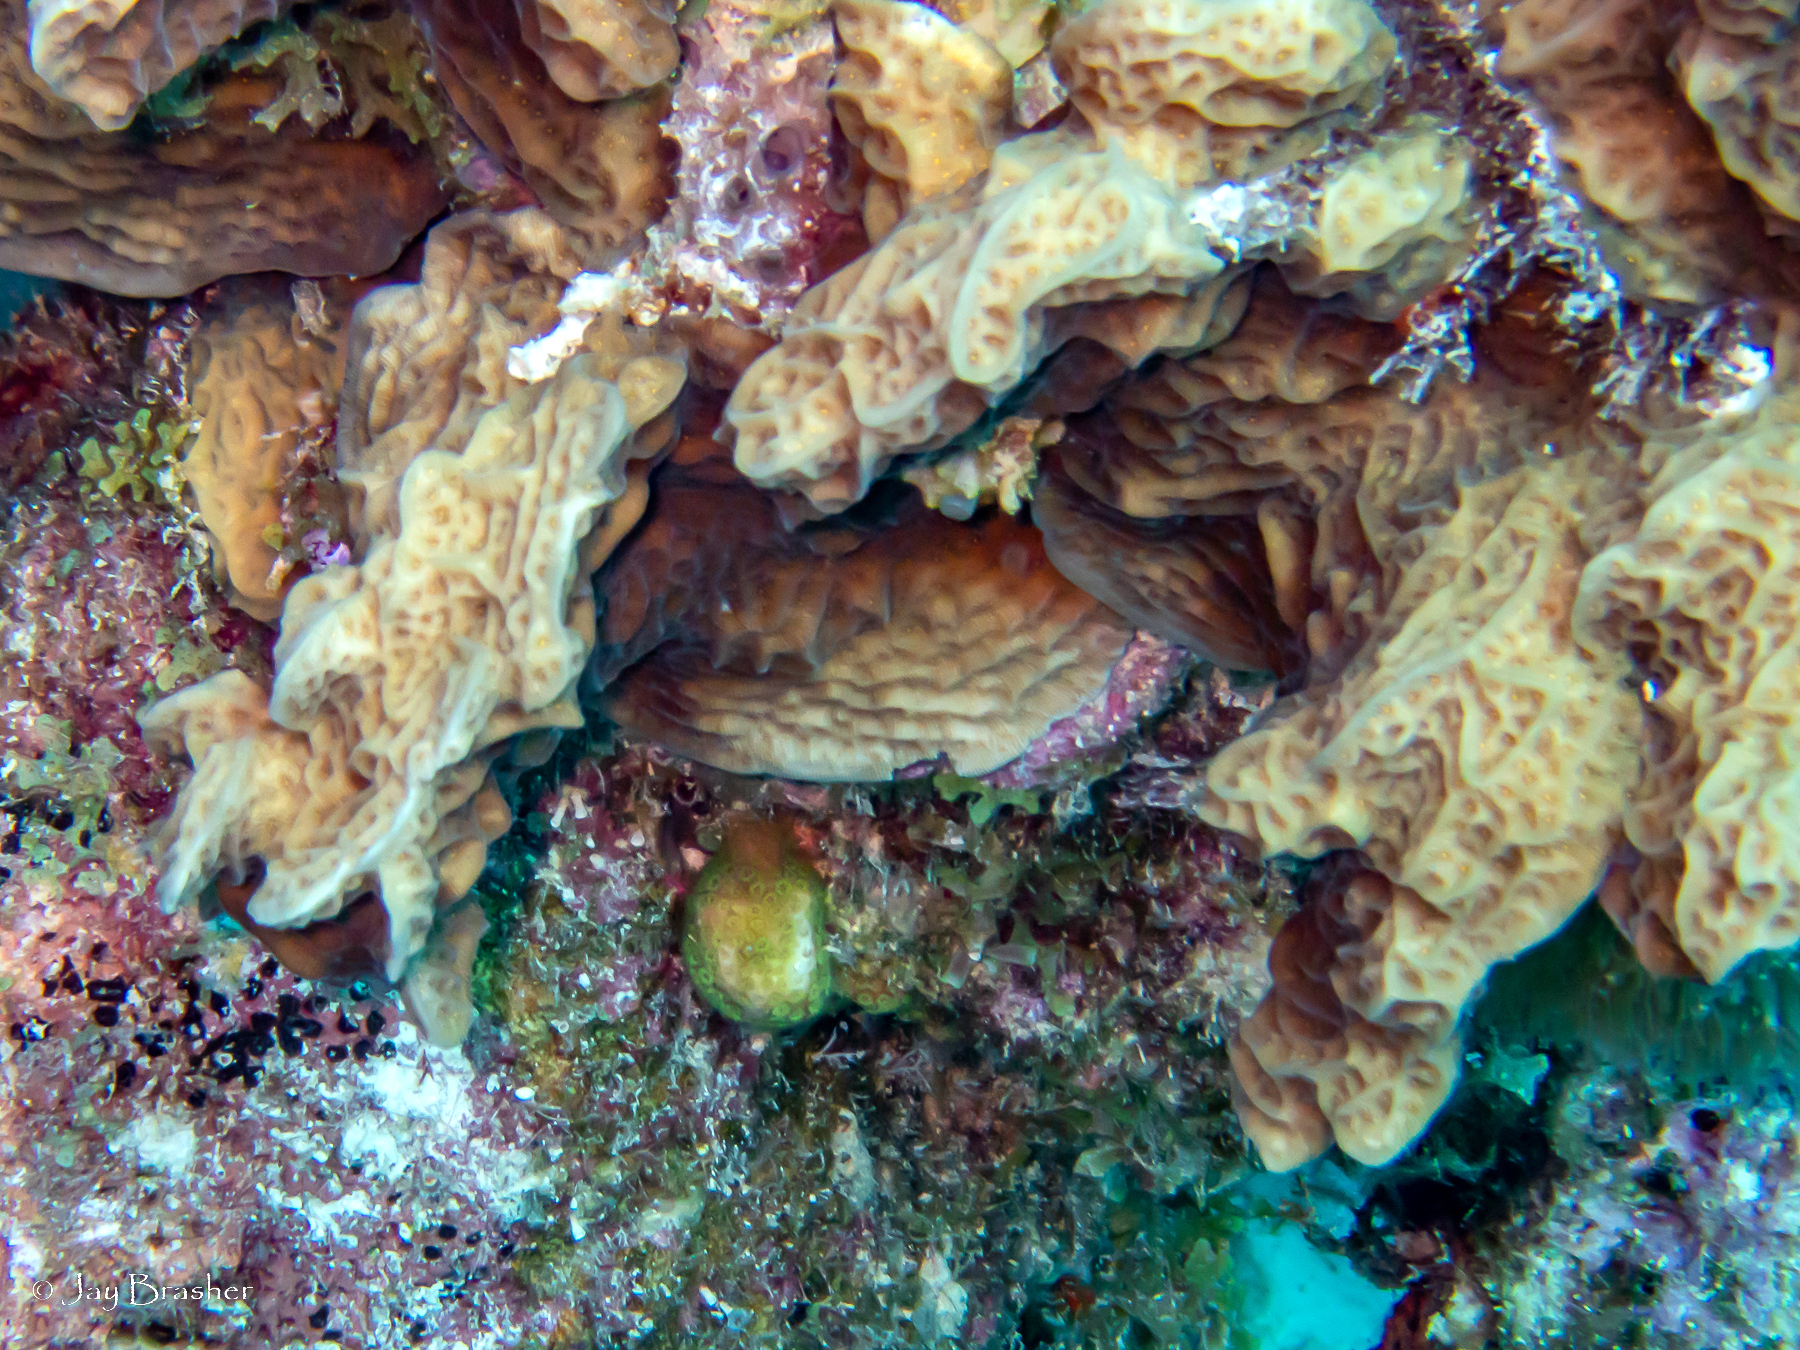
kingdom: Animalia
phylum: Cnidaria
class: Anthozoa
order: Scleractinia
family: Pocilloporidae
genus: Madracis
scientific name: Madracis decactis
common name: Ten-ray star coral
